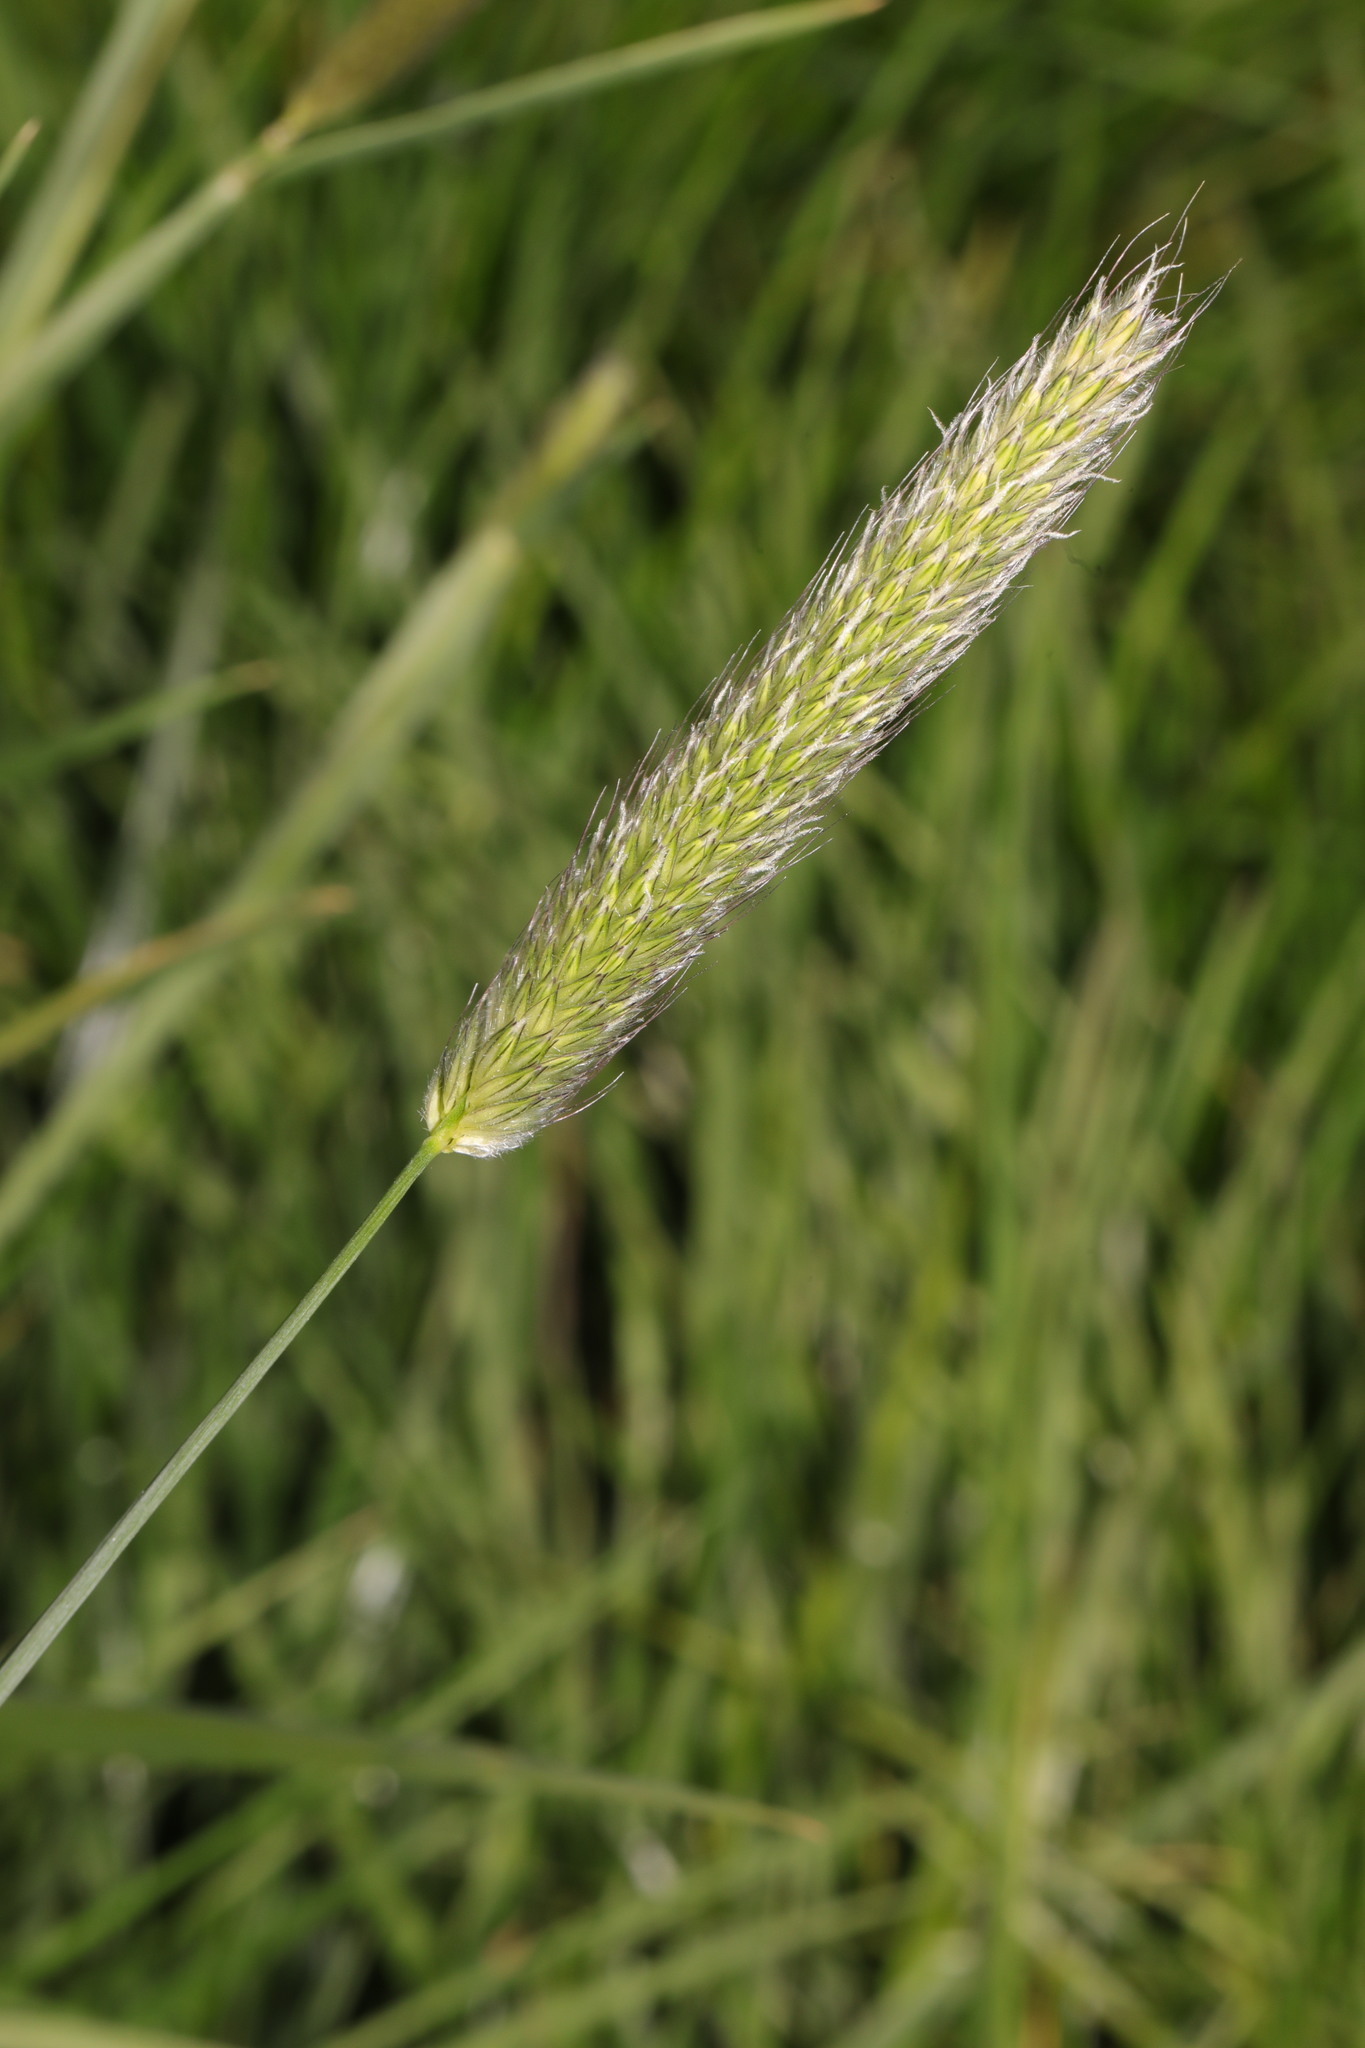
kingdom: Plantae
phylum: Tracheophyta
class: Liliopsida
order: Poales
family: Poaceae
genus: Alopecurus
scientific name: Alopecurus pratensis
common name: Meadow foxtail
